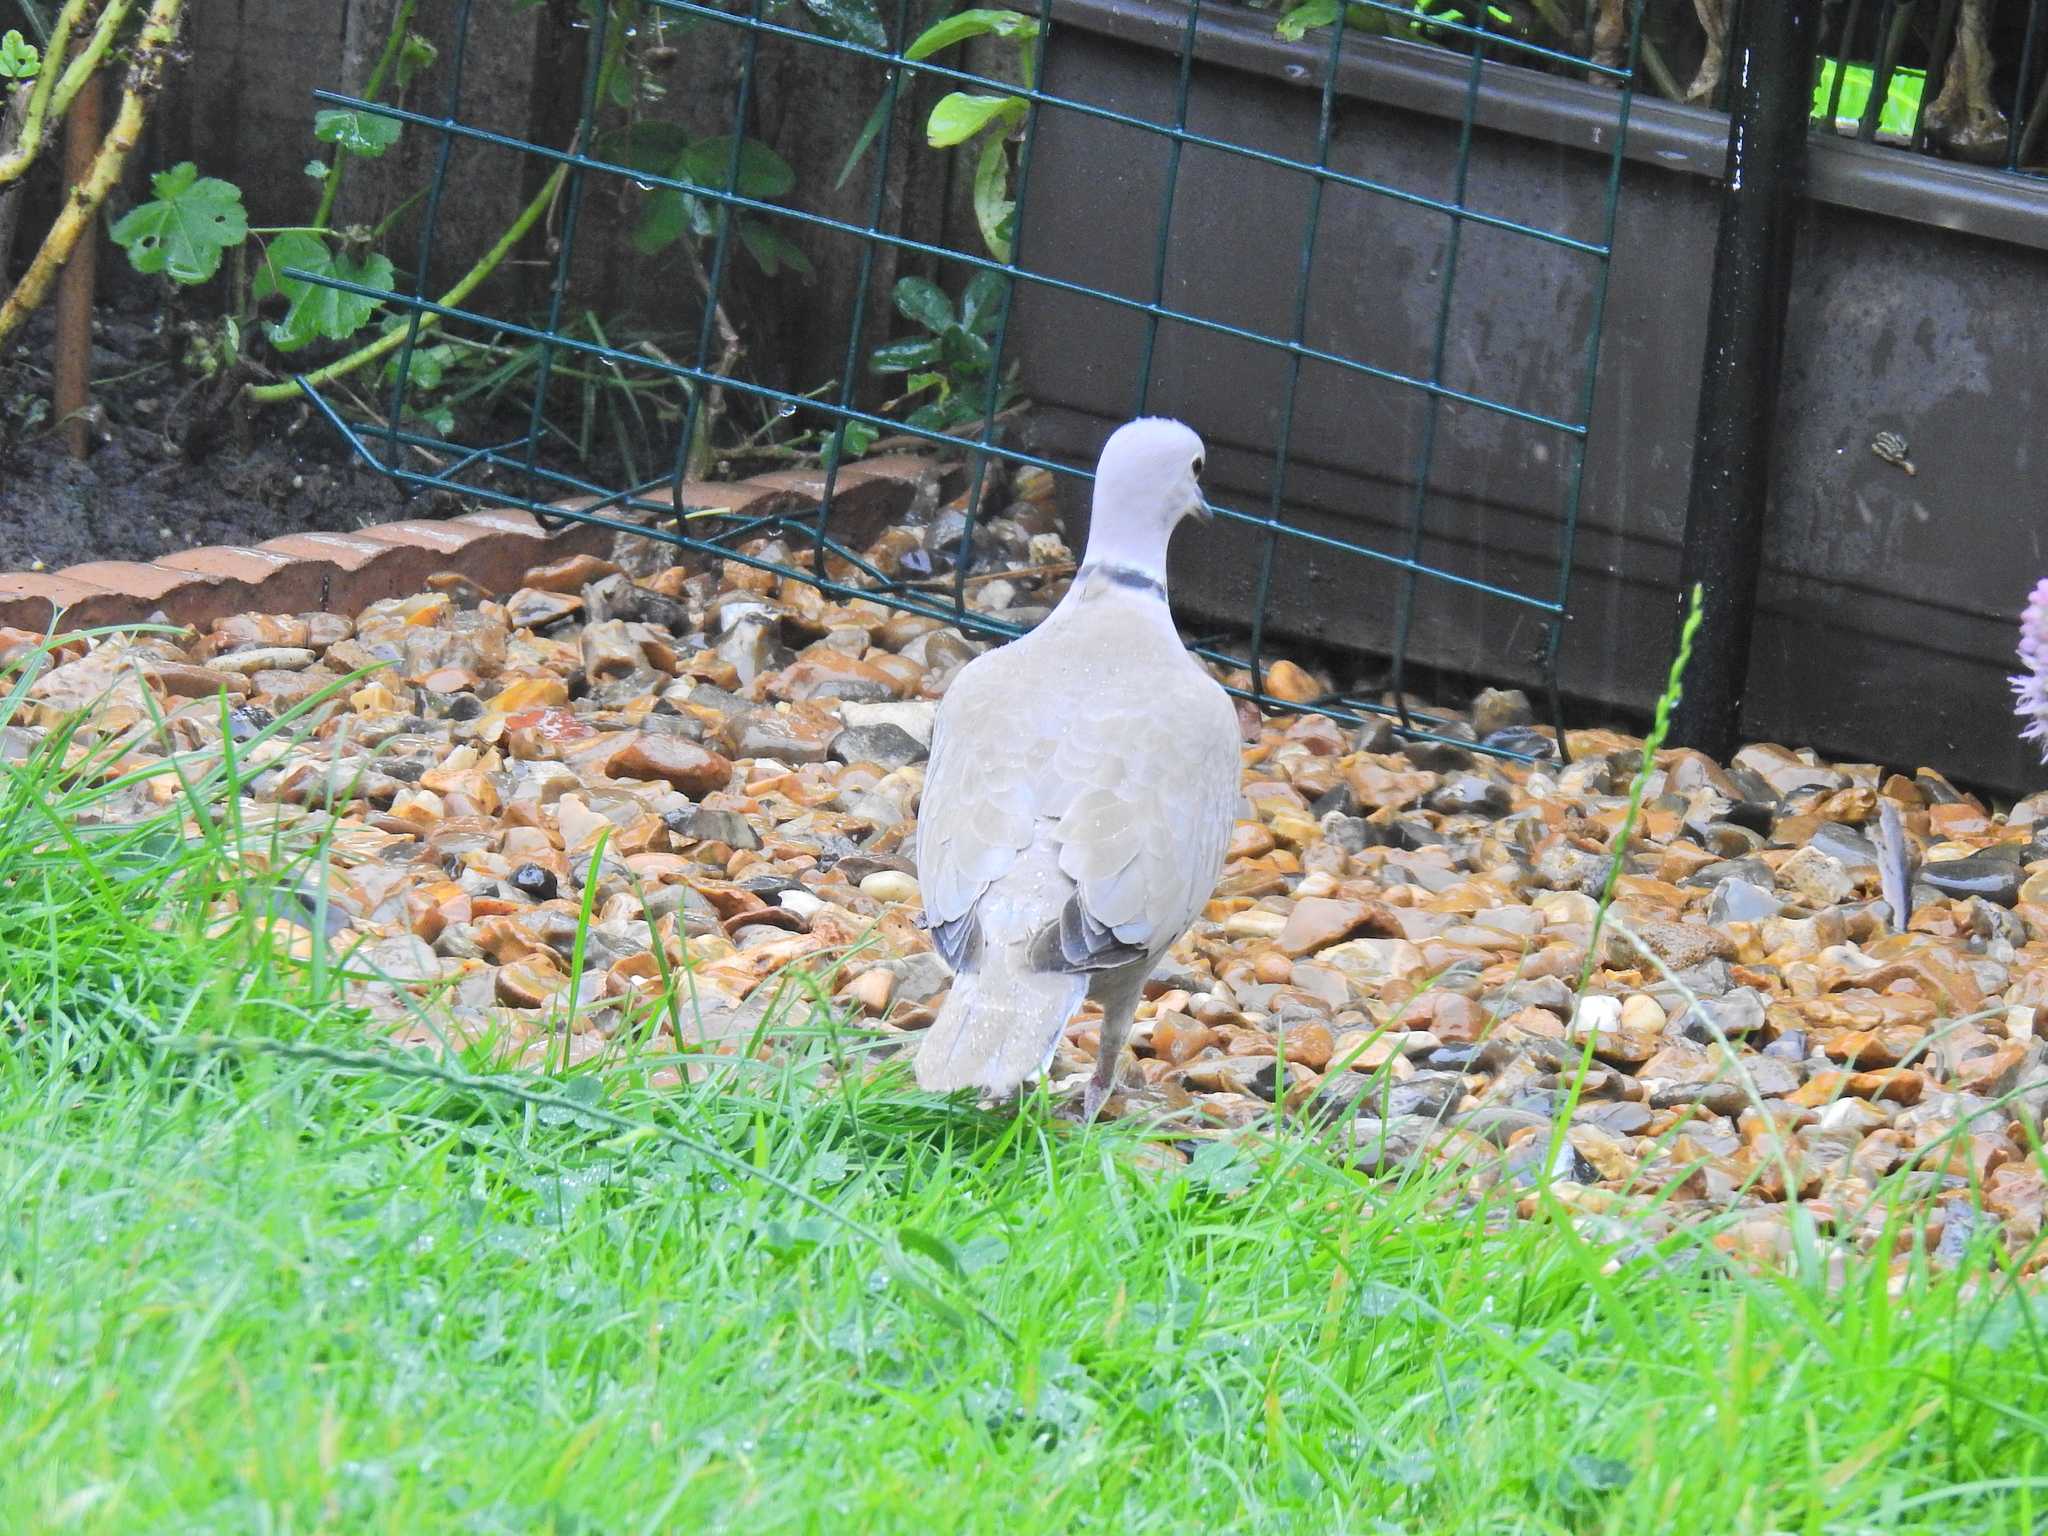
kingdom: Animalia
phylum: Chordata
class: Aves
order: Columbiformes
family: Columbidae
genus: Streptopelia
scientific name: Streptopelia decaocto
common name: Eurasian collared dove
